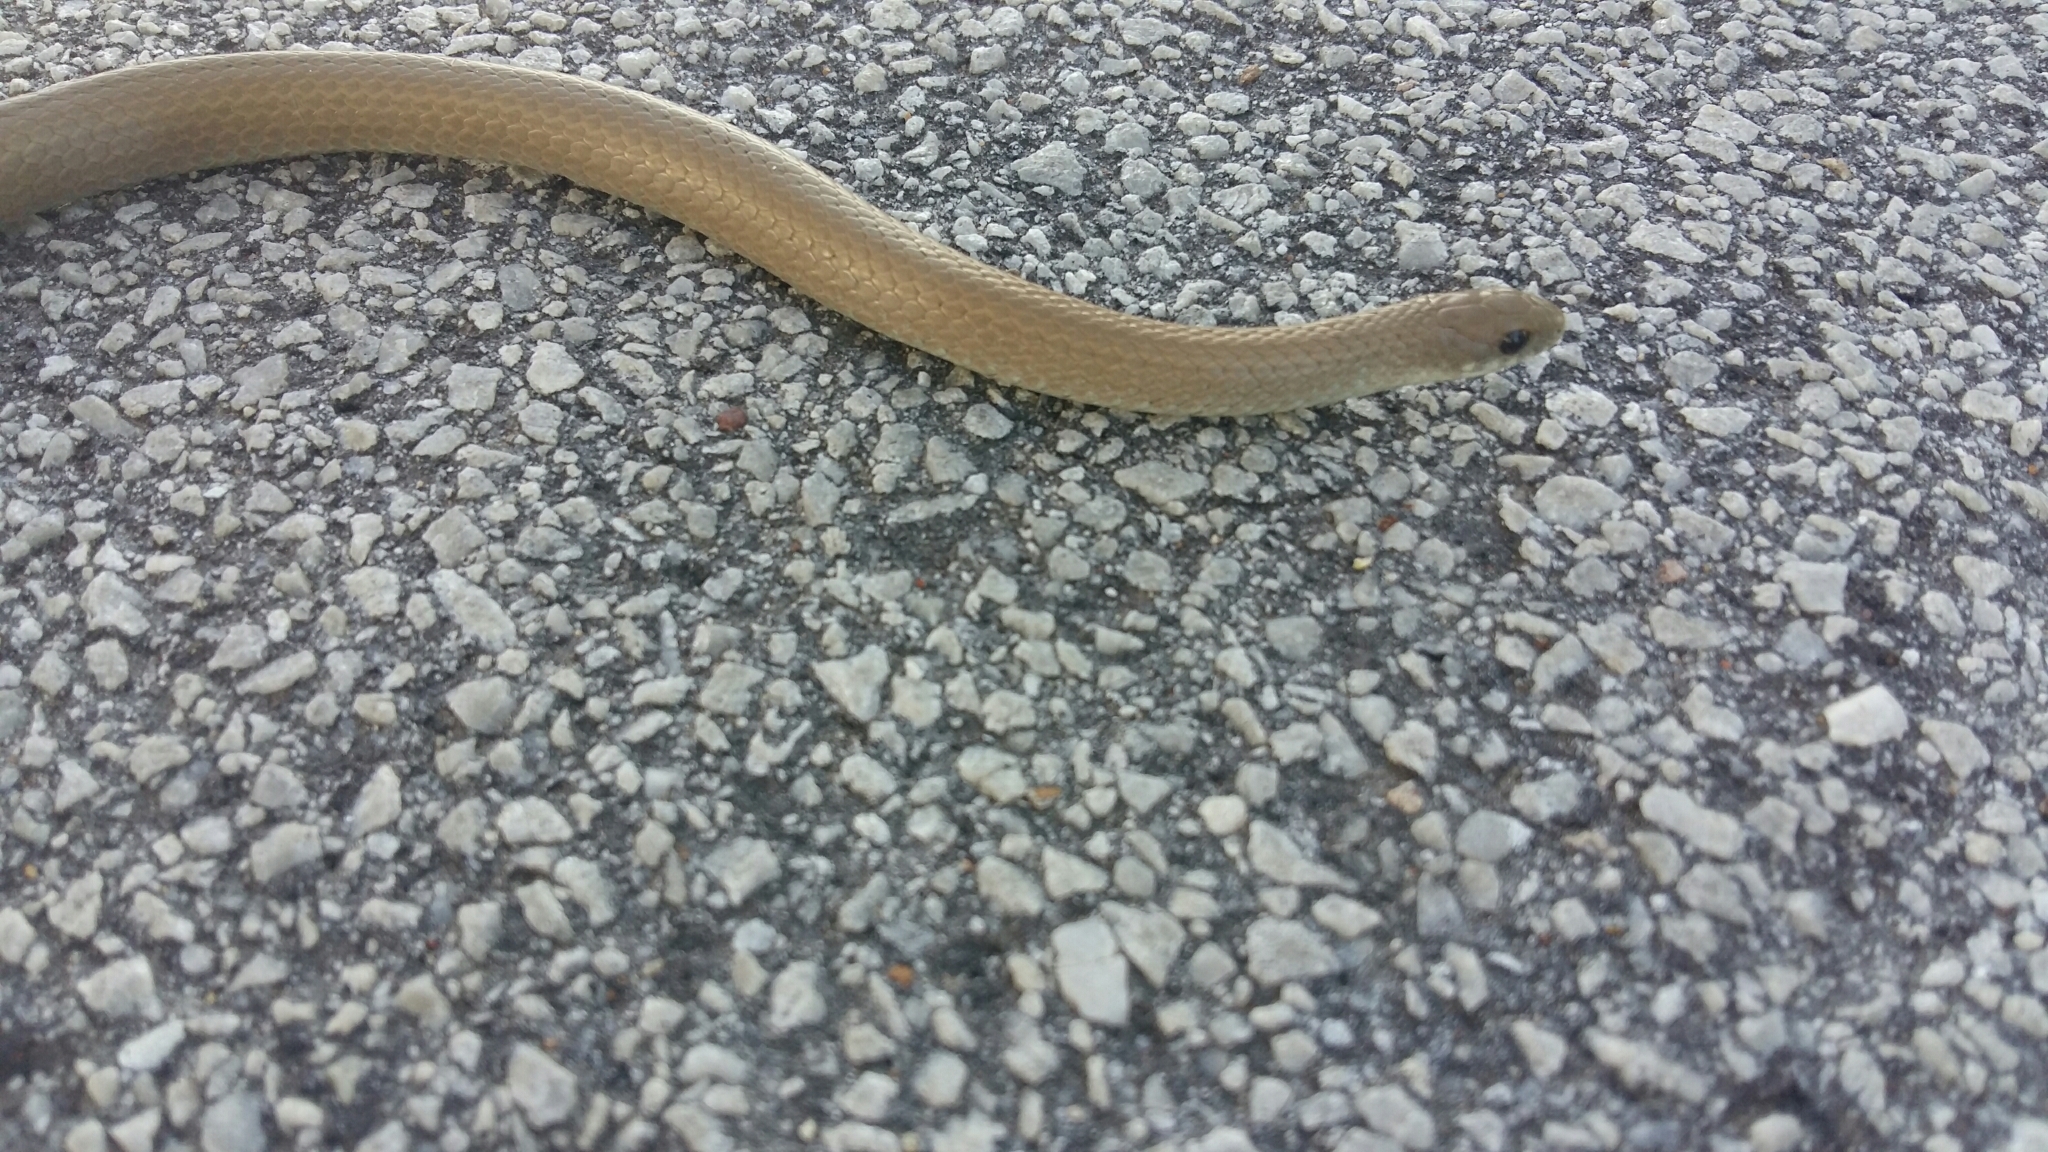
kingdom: Animalia
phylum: Chordata
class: Squamata
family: Pseudoxyrhophiidae
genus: Duberria
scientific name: Duberria lutrix
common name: Common slug eater
